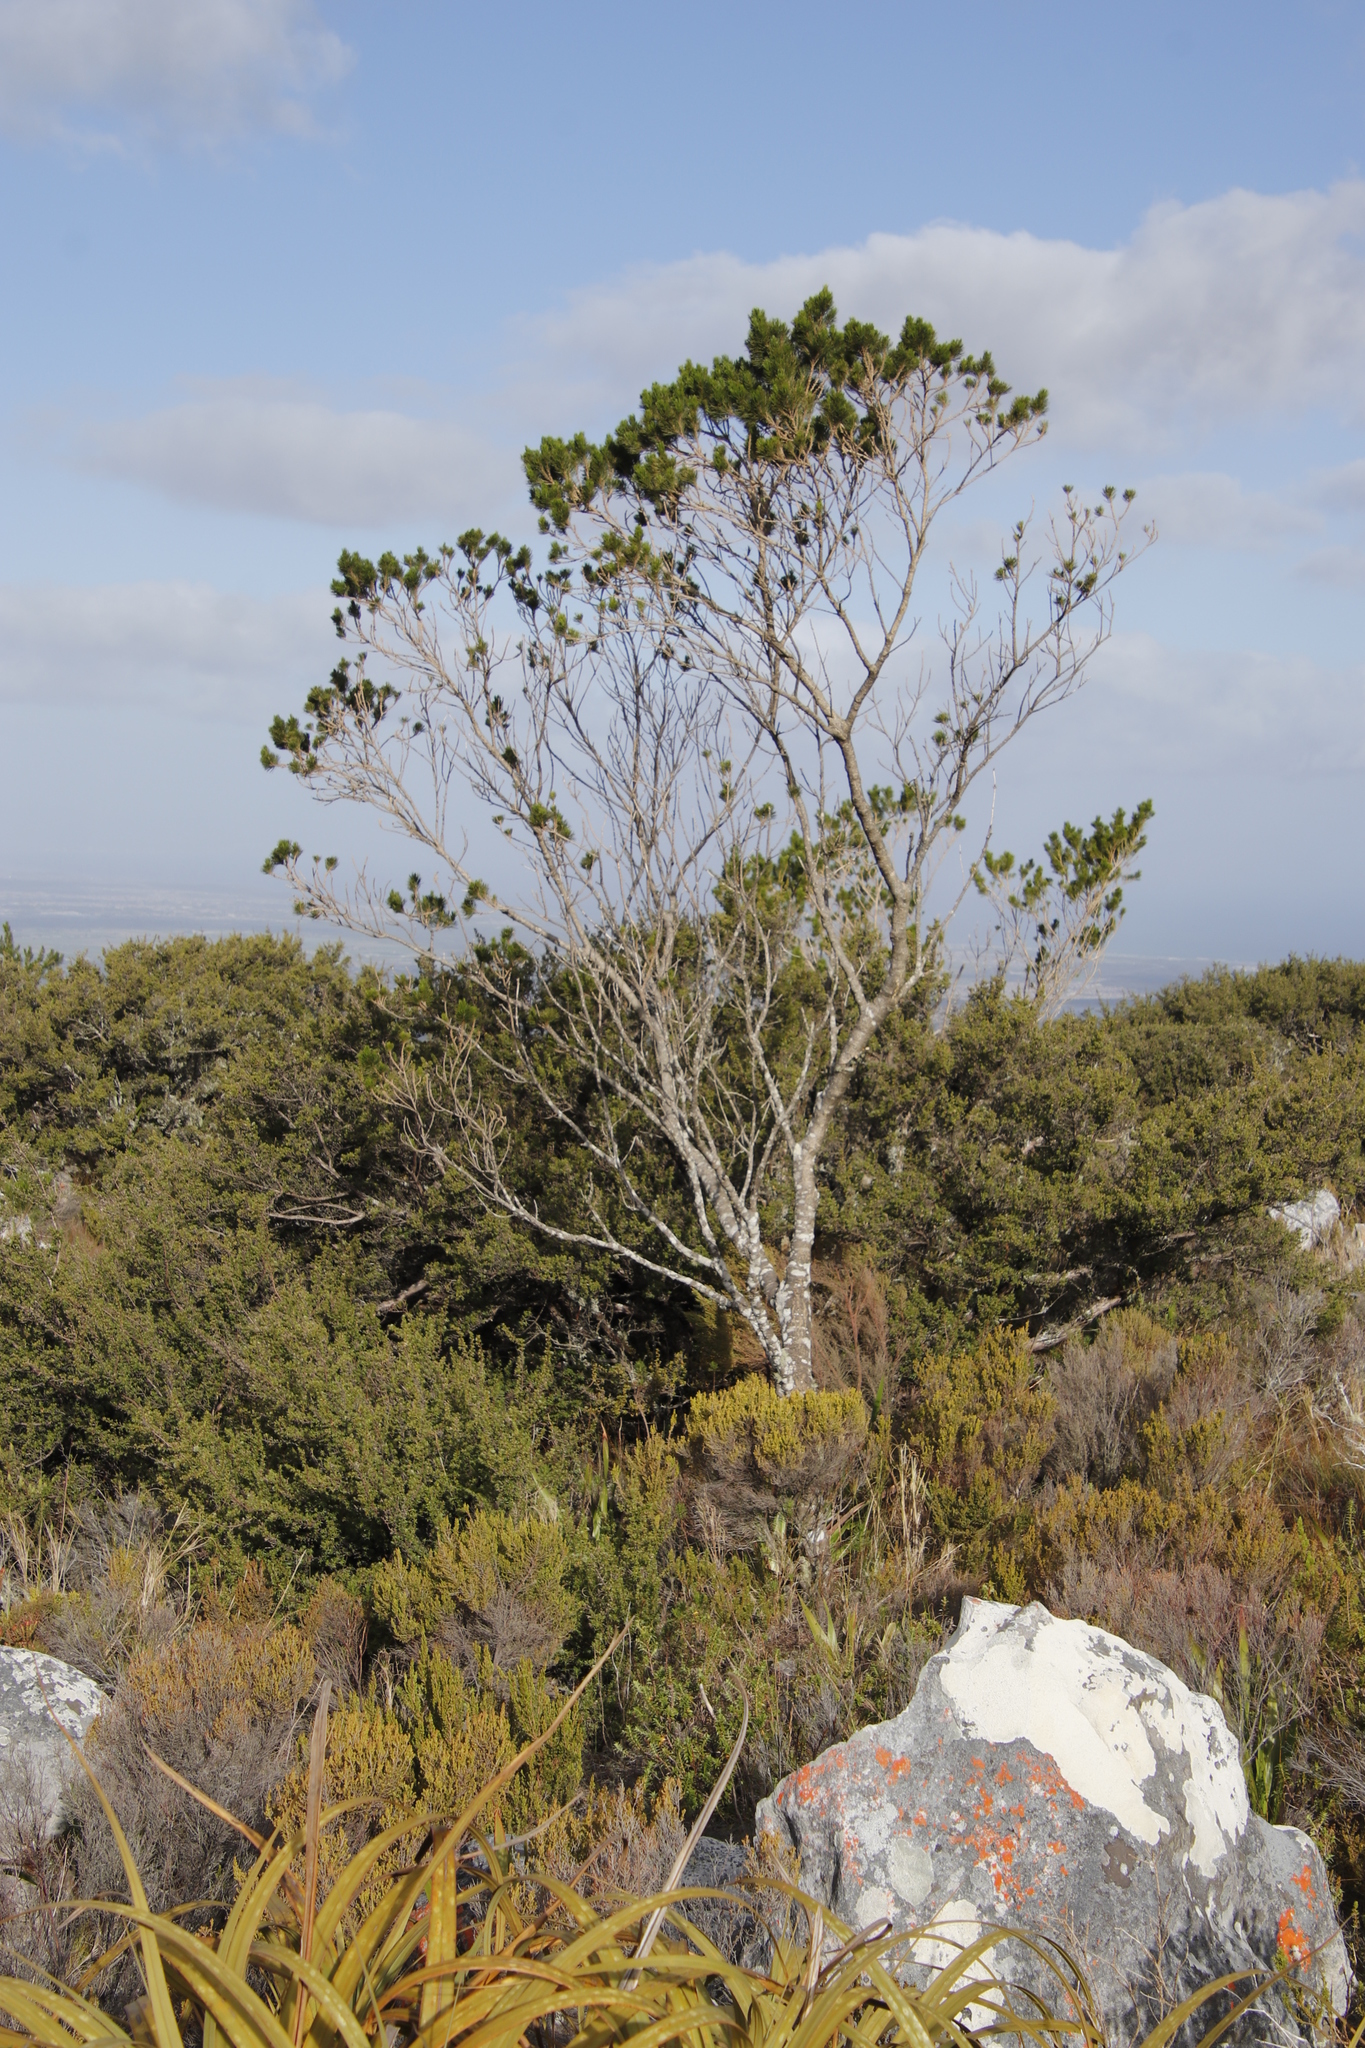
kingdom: Plantae
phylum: Tracheophyta
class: Magnoliopsida
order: Fabales
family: Fabaceae
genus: Psoralea
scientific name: Psoralea pinnata
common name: African scurfpea
